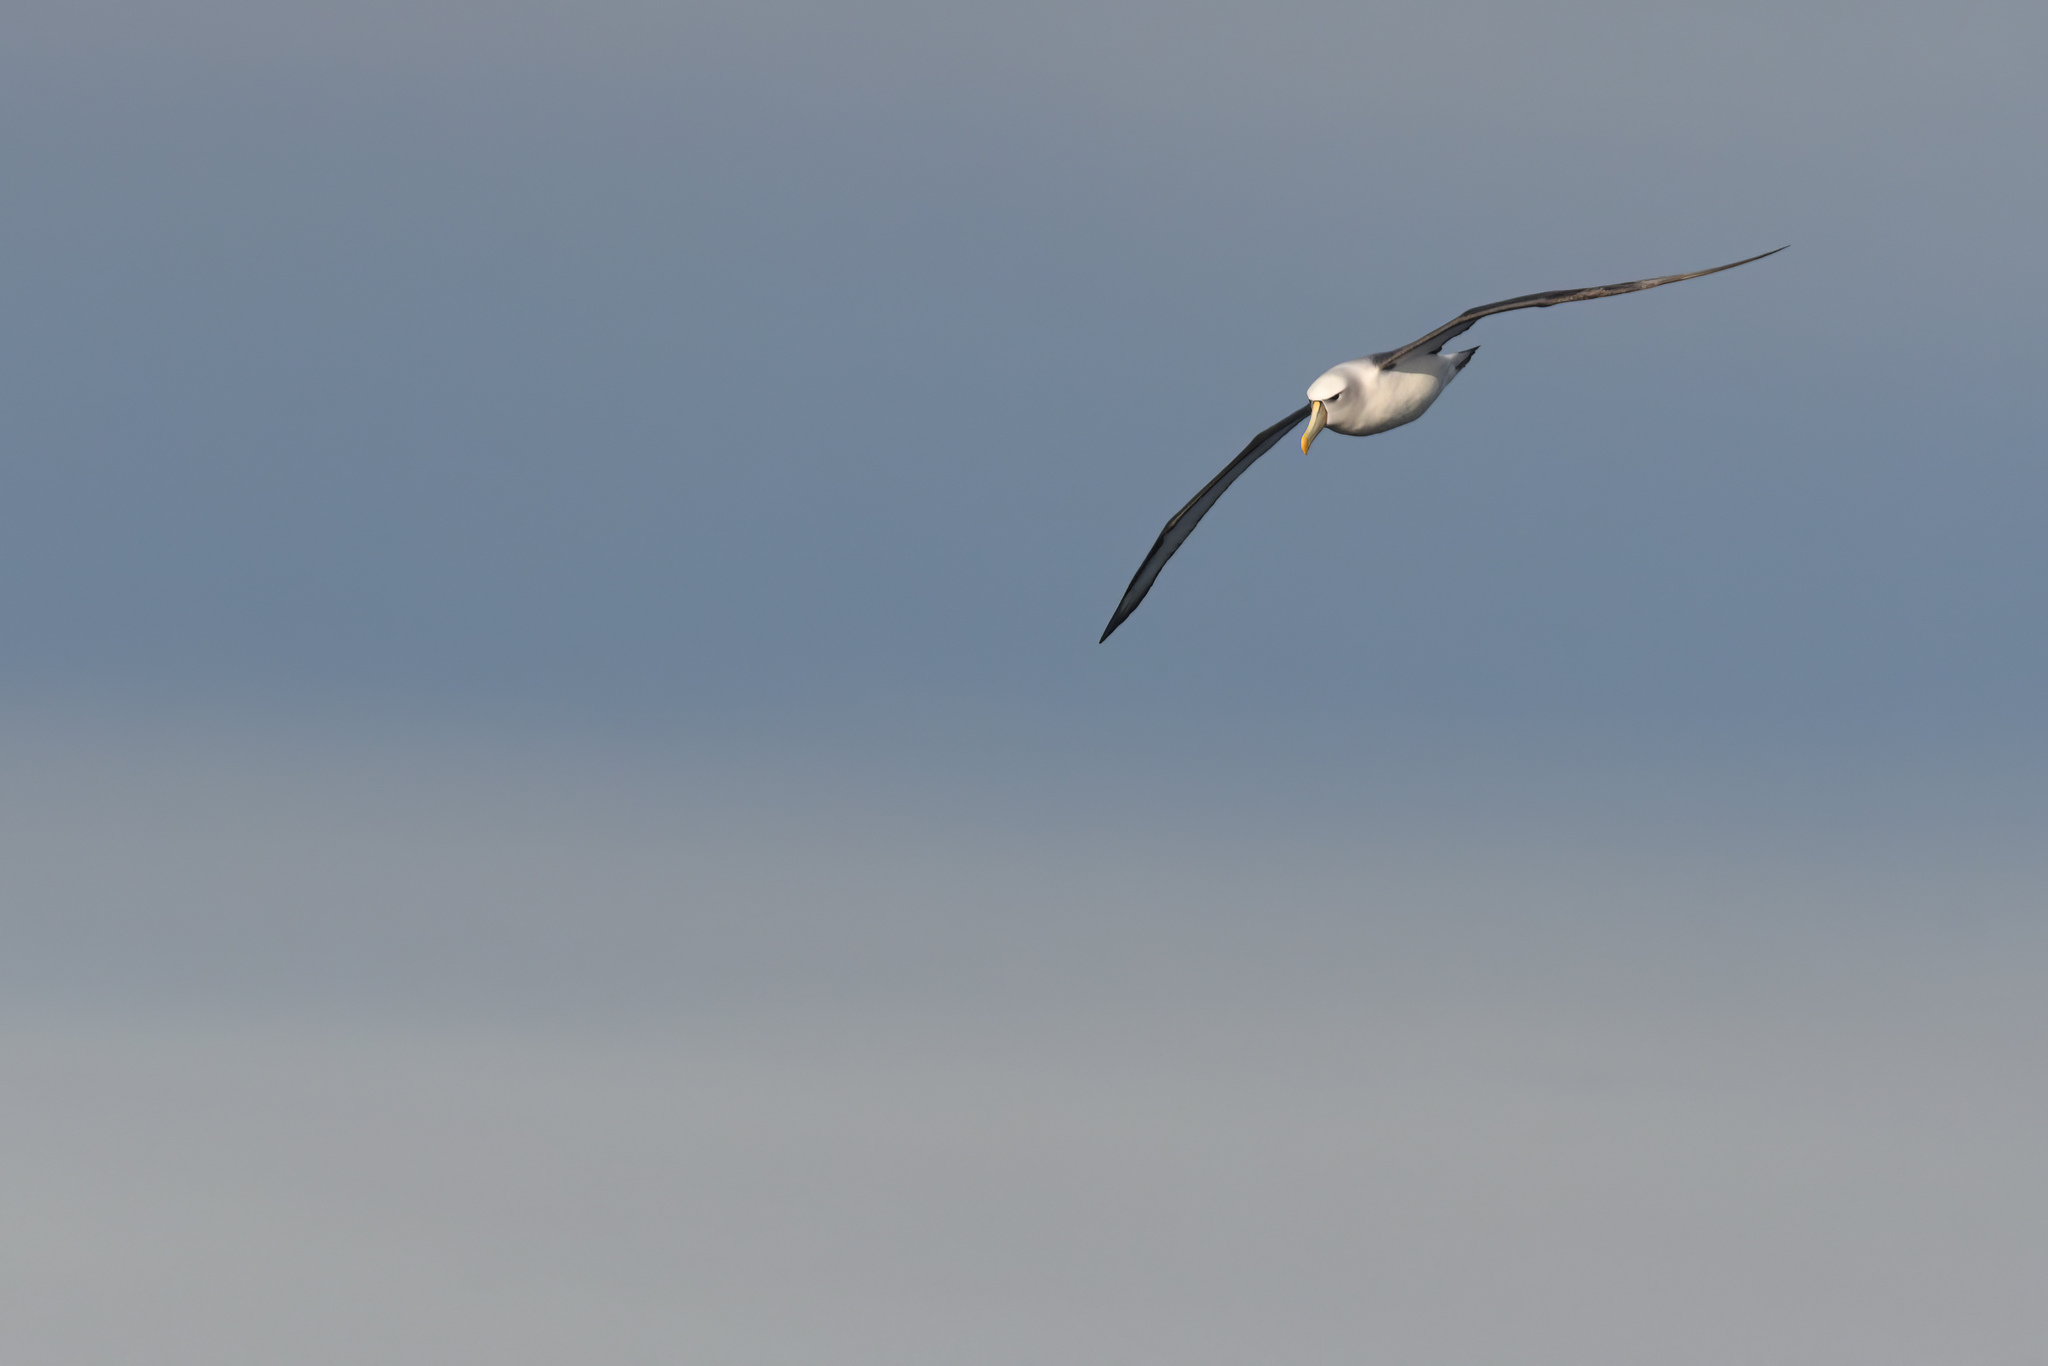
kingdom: Animalia
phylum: Chordata
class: Aves
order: Procellariiformes
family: Diomedeidae
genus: Thalassarche
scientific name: Thalassarche cauta
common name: Shy albatross
